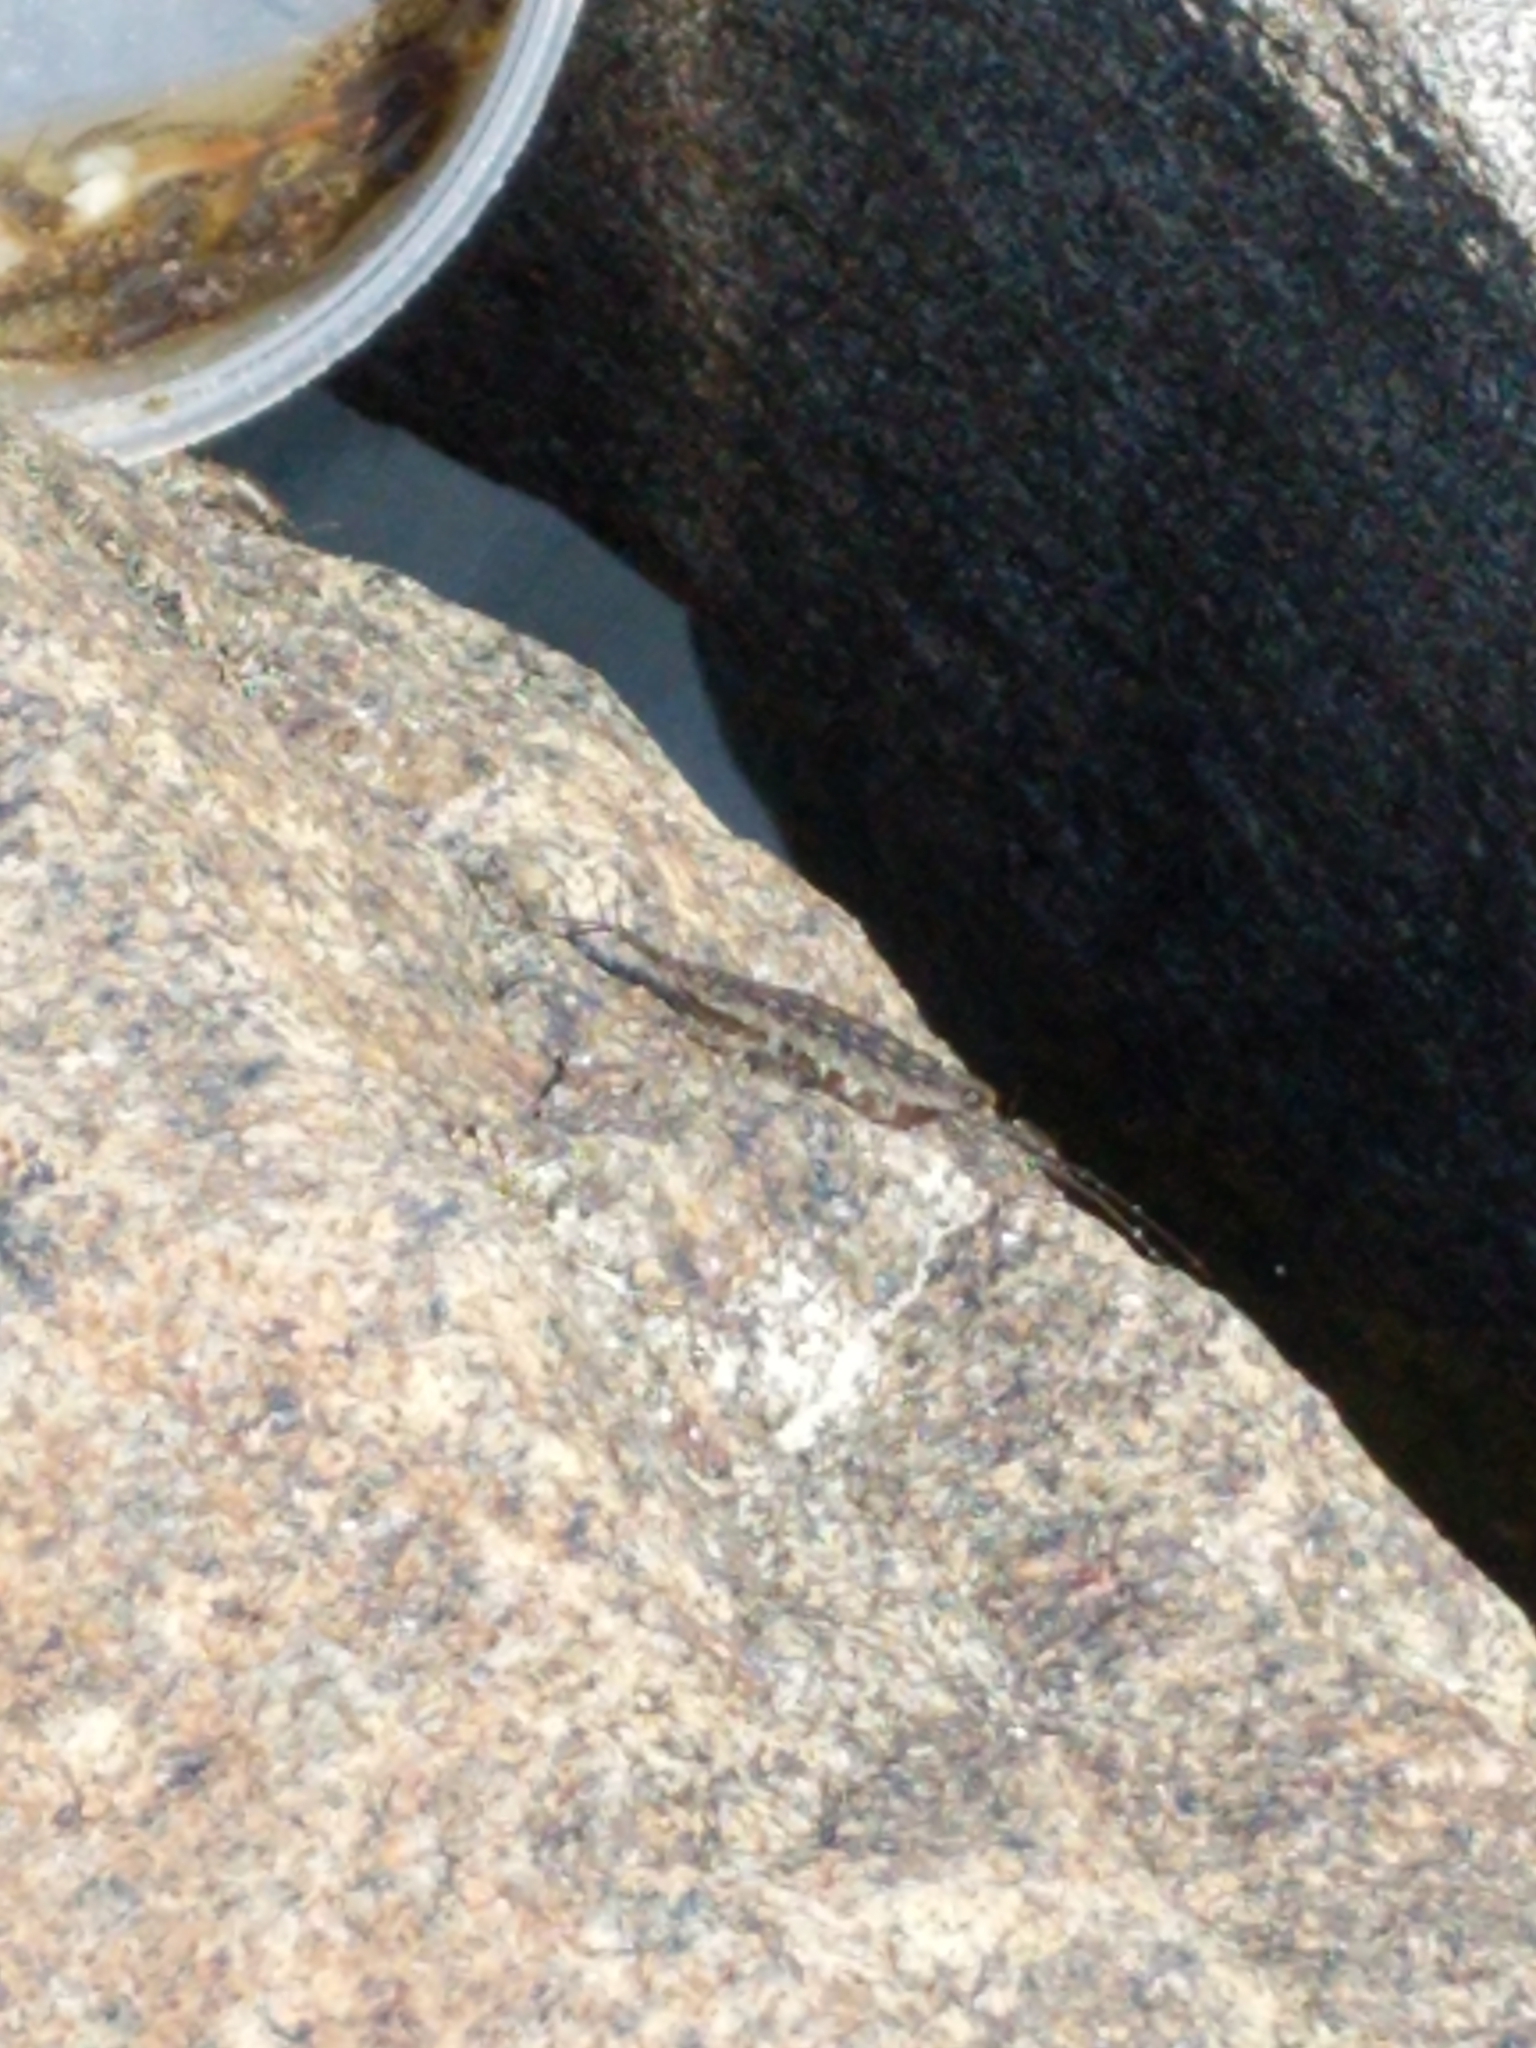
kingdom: Animalia
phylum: Arthropoda
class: Malacostraca
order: Isopoda
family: Ligiidae
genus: Ligia
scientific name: Ligia exotica
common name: Wharf roach
